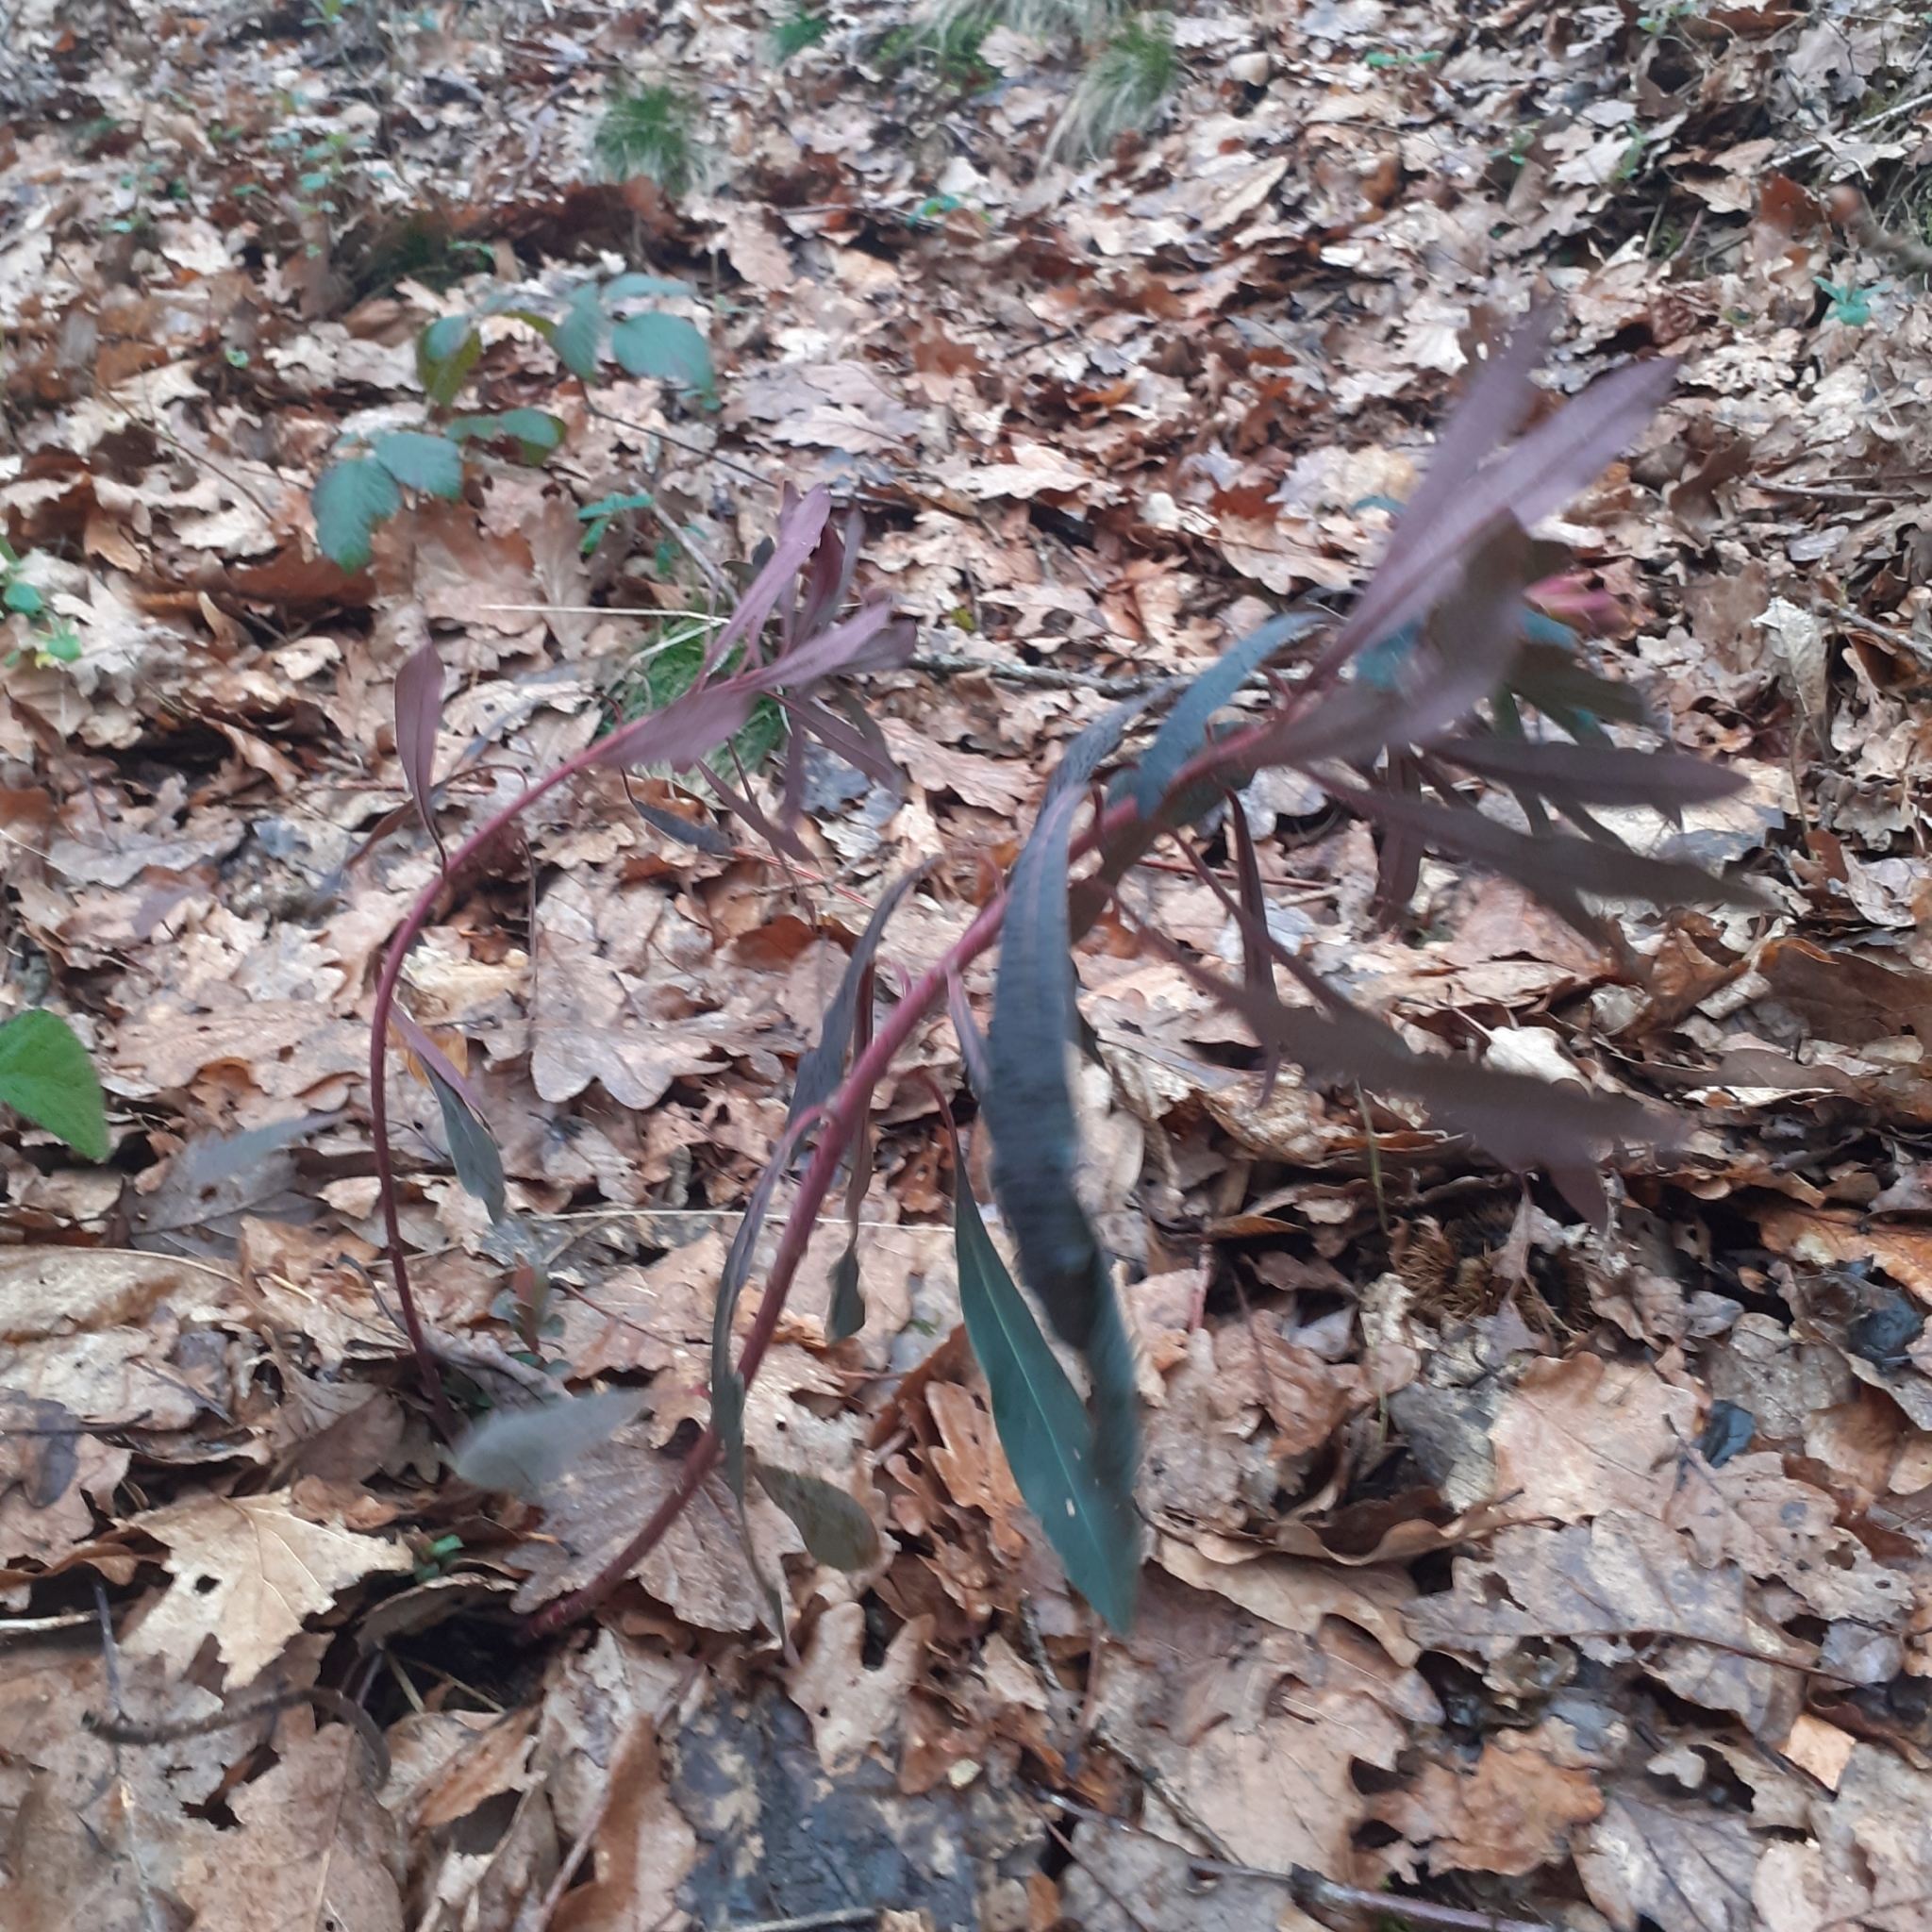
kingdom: Plantae
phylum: Tracheophyta
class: Magnoliopsida
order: Malpighiales
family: Euphorbiaceae
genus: Euphorbia
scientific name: Euphorbia amygdaloides
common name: Wood spurge
